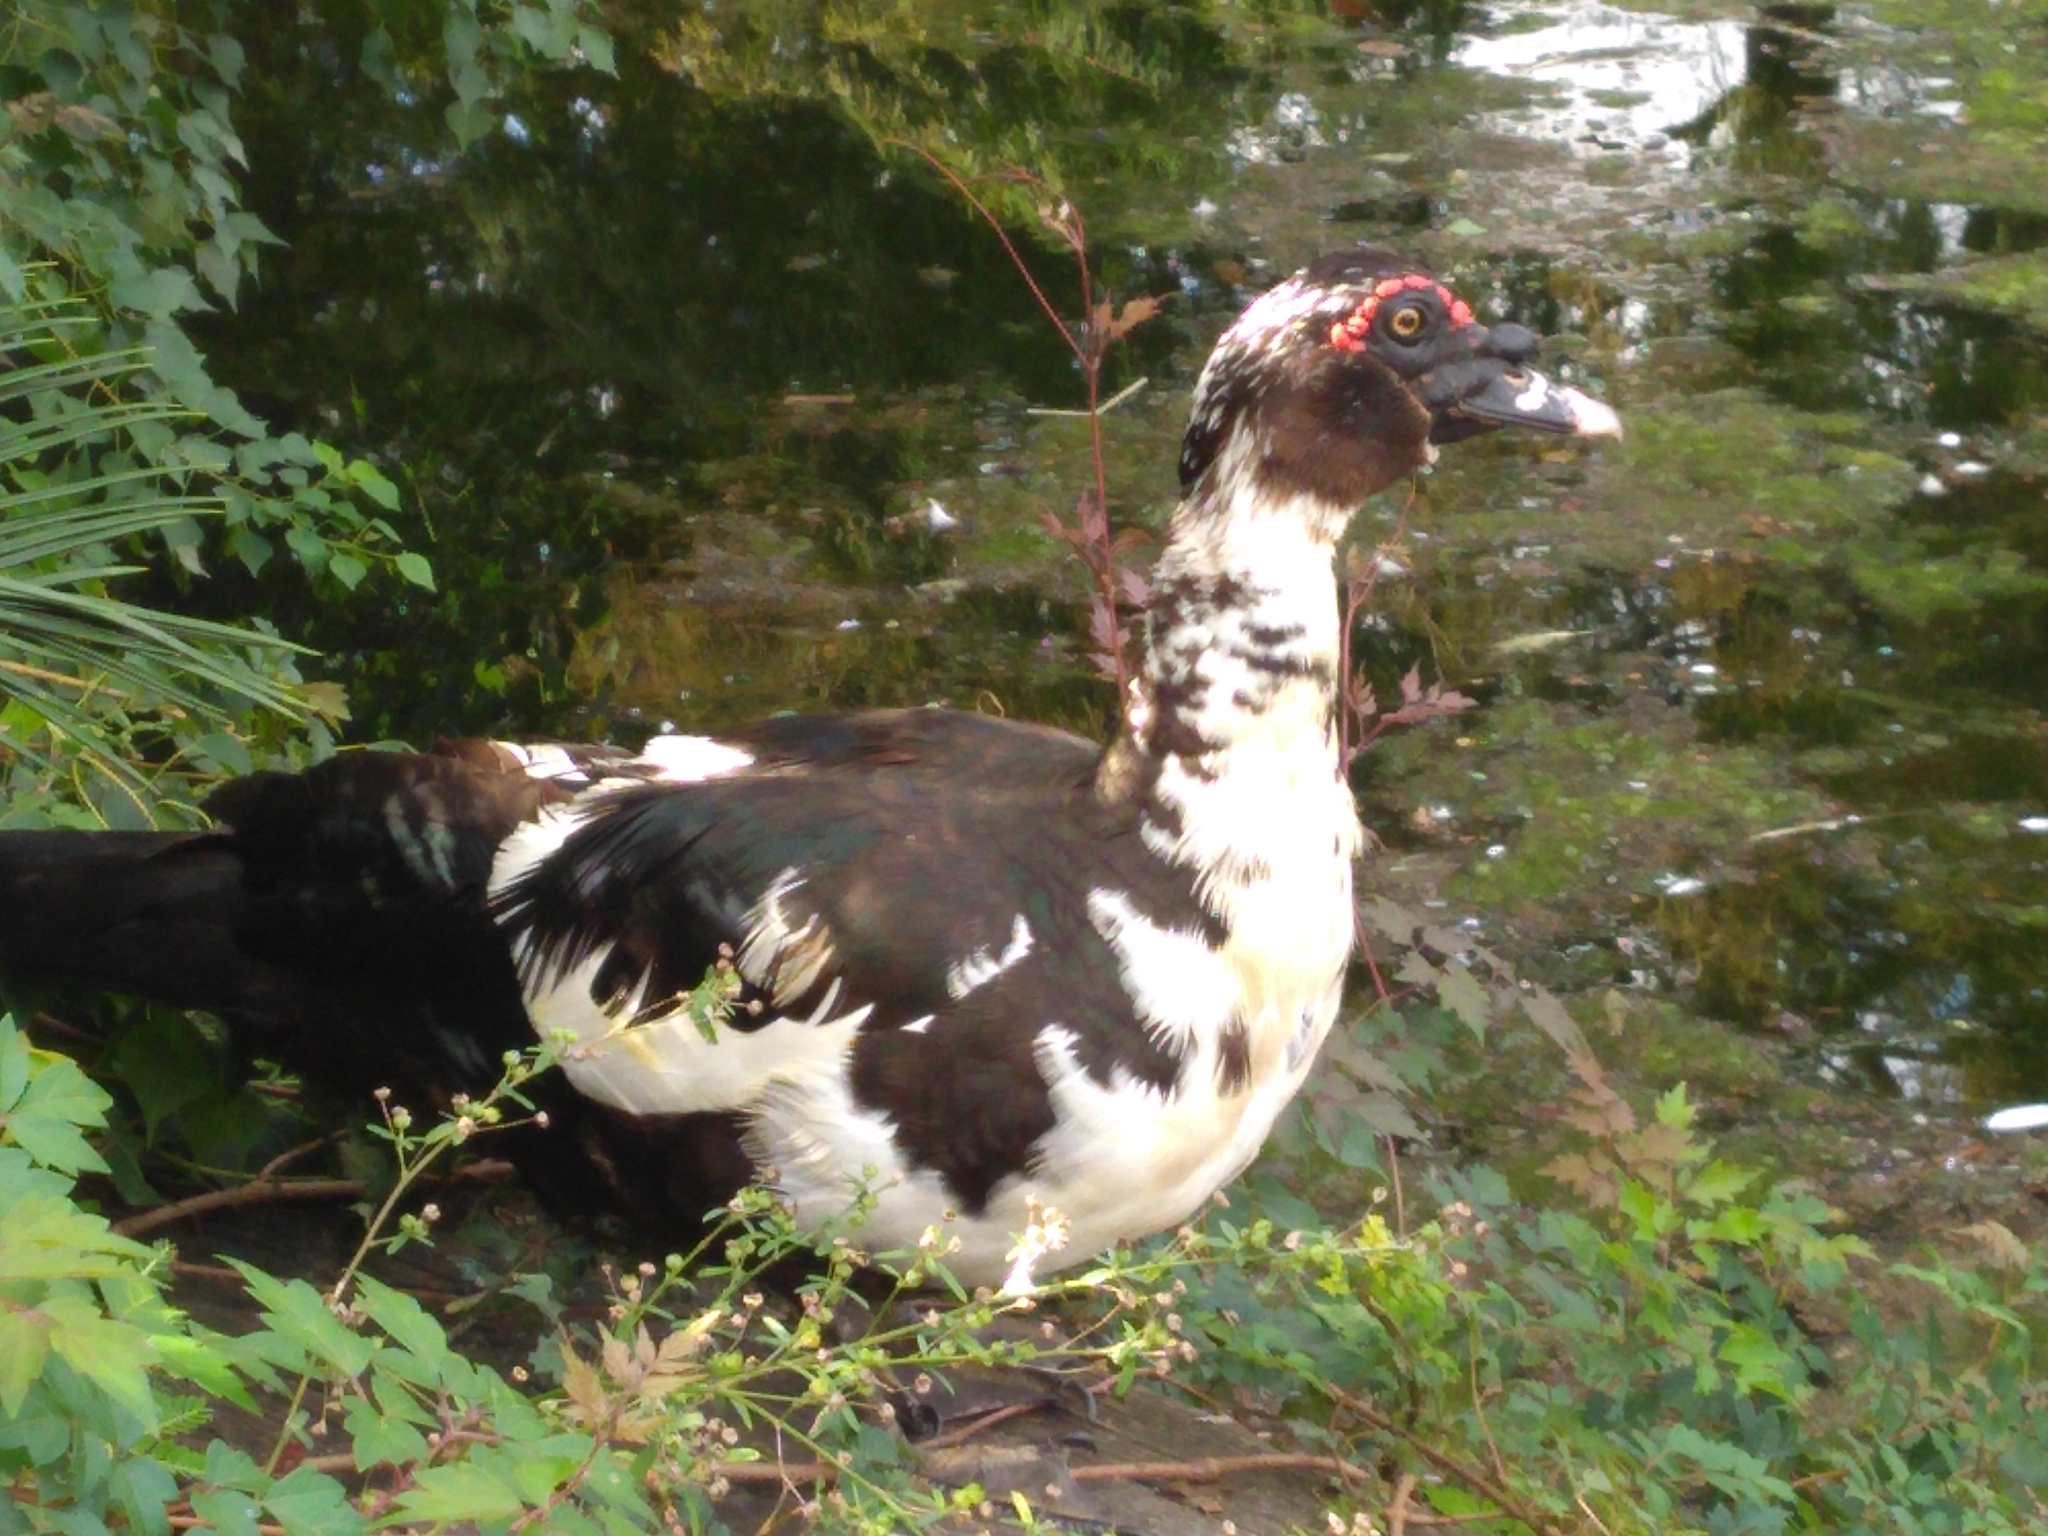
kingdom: Animalia
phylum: Chordata
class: Aves
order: Anseriformes
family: Anatidae
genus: Cairina
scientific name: Cairina moschata
